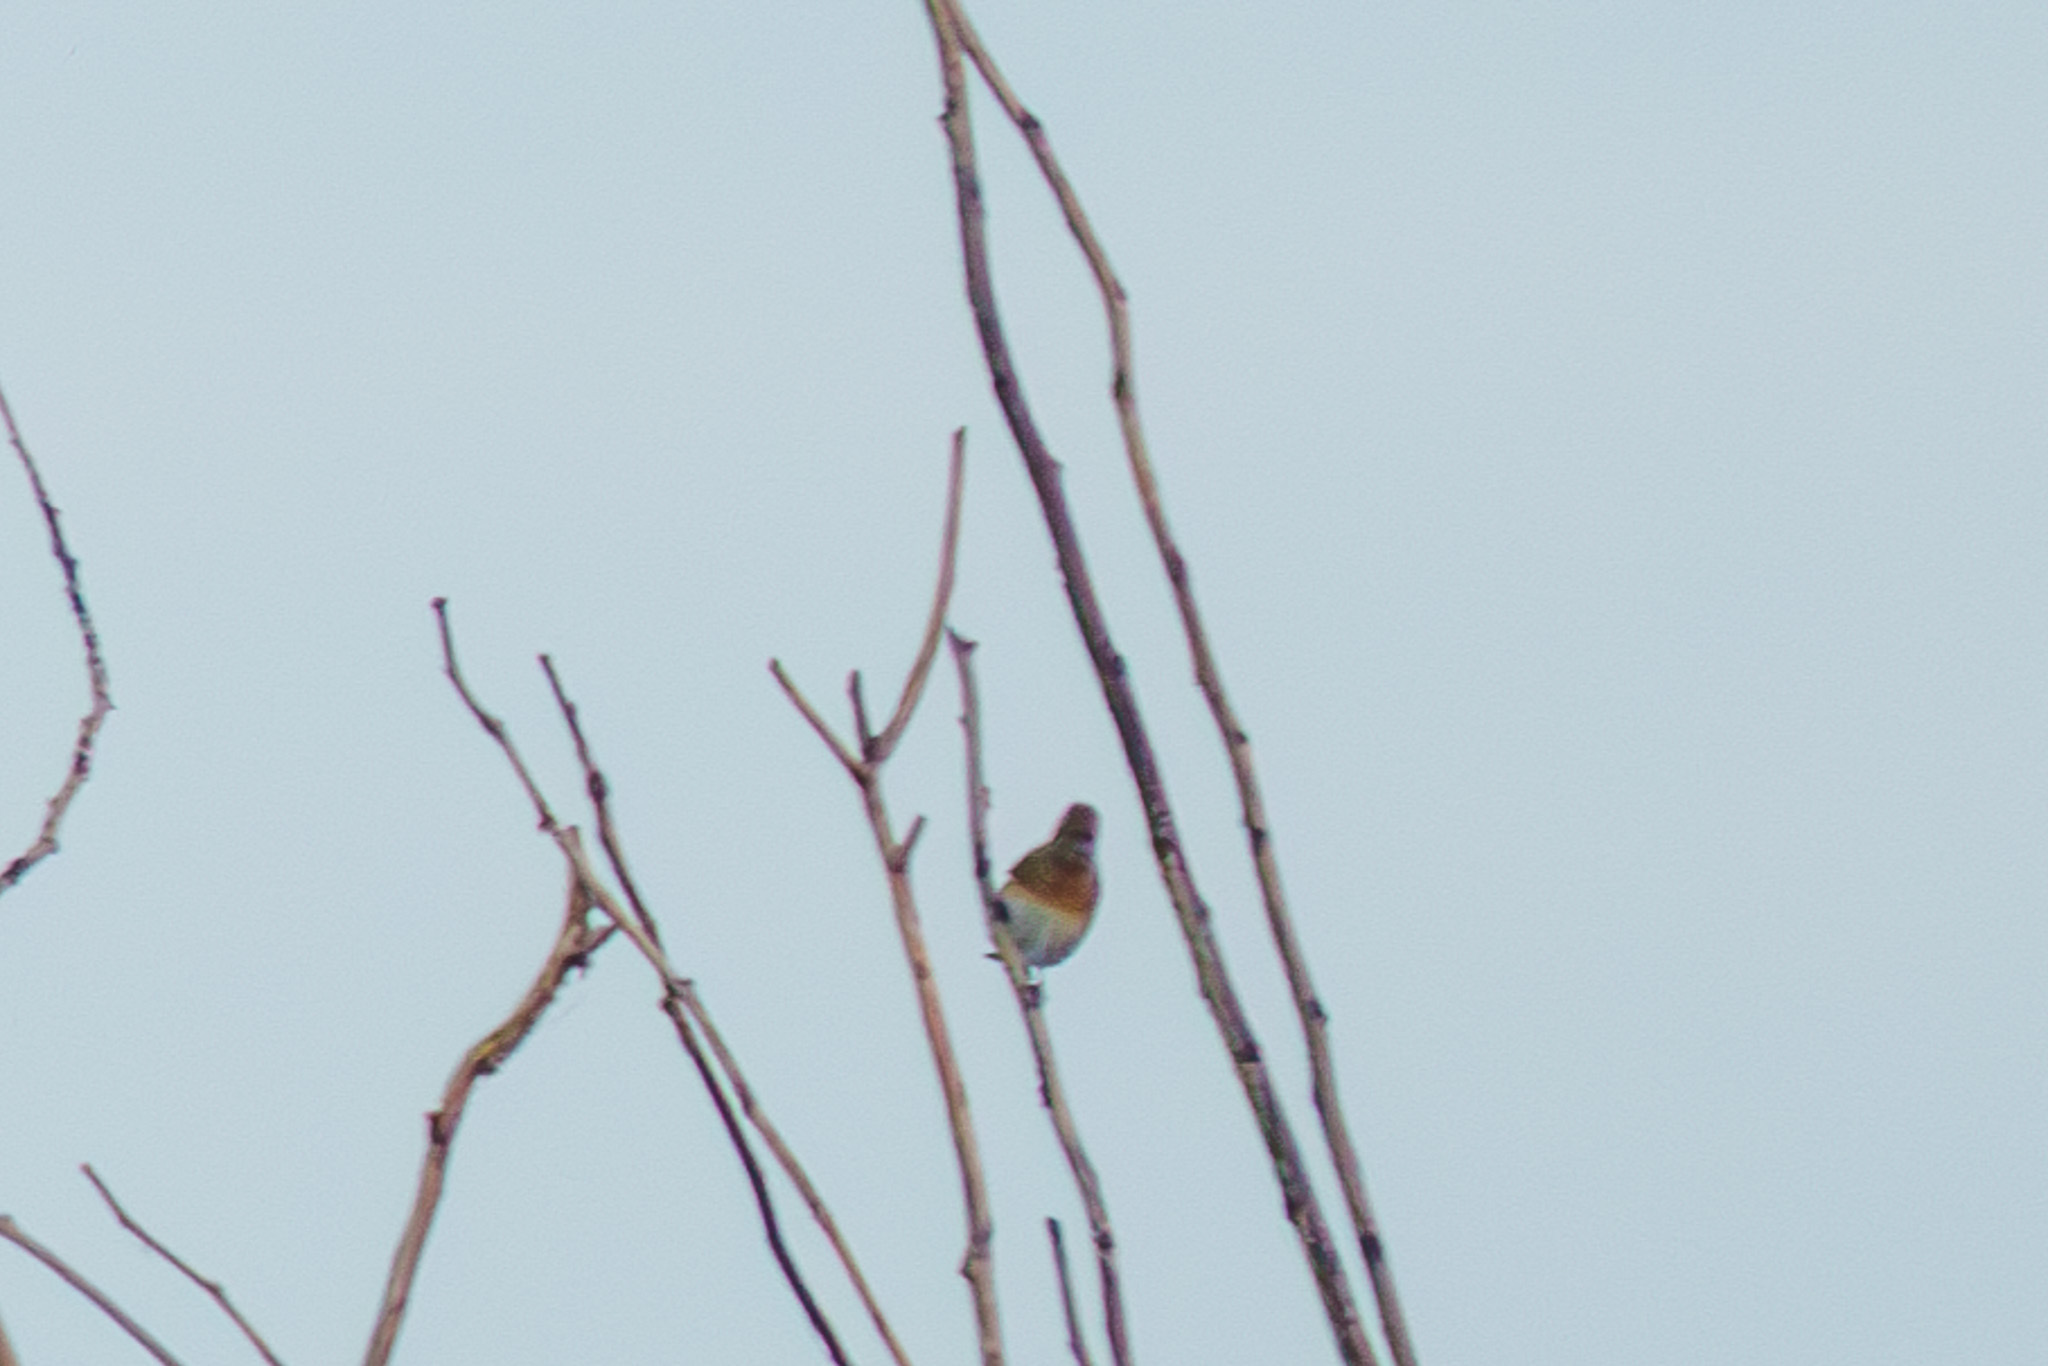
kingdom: Animalia
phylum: Chordata
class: Aves
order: Passeriformes
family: Turdidae
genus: Turdus
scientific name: Turdus pilaris
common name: Fieldfare
